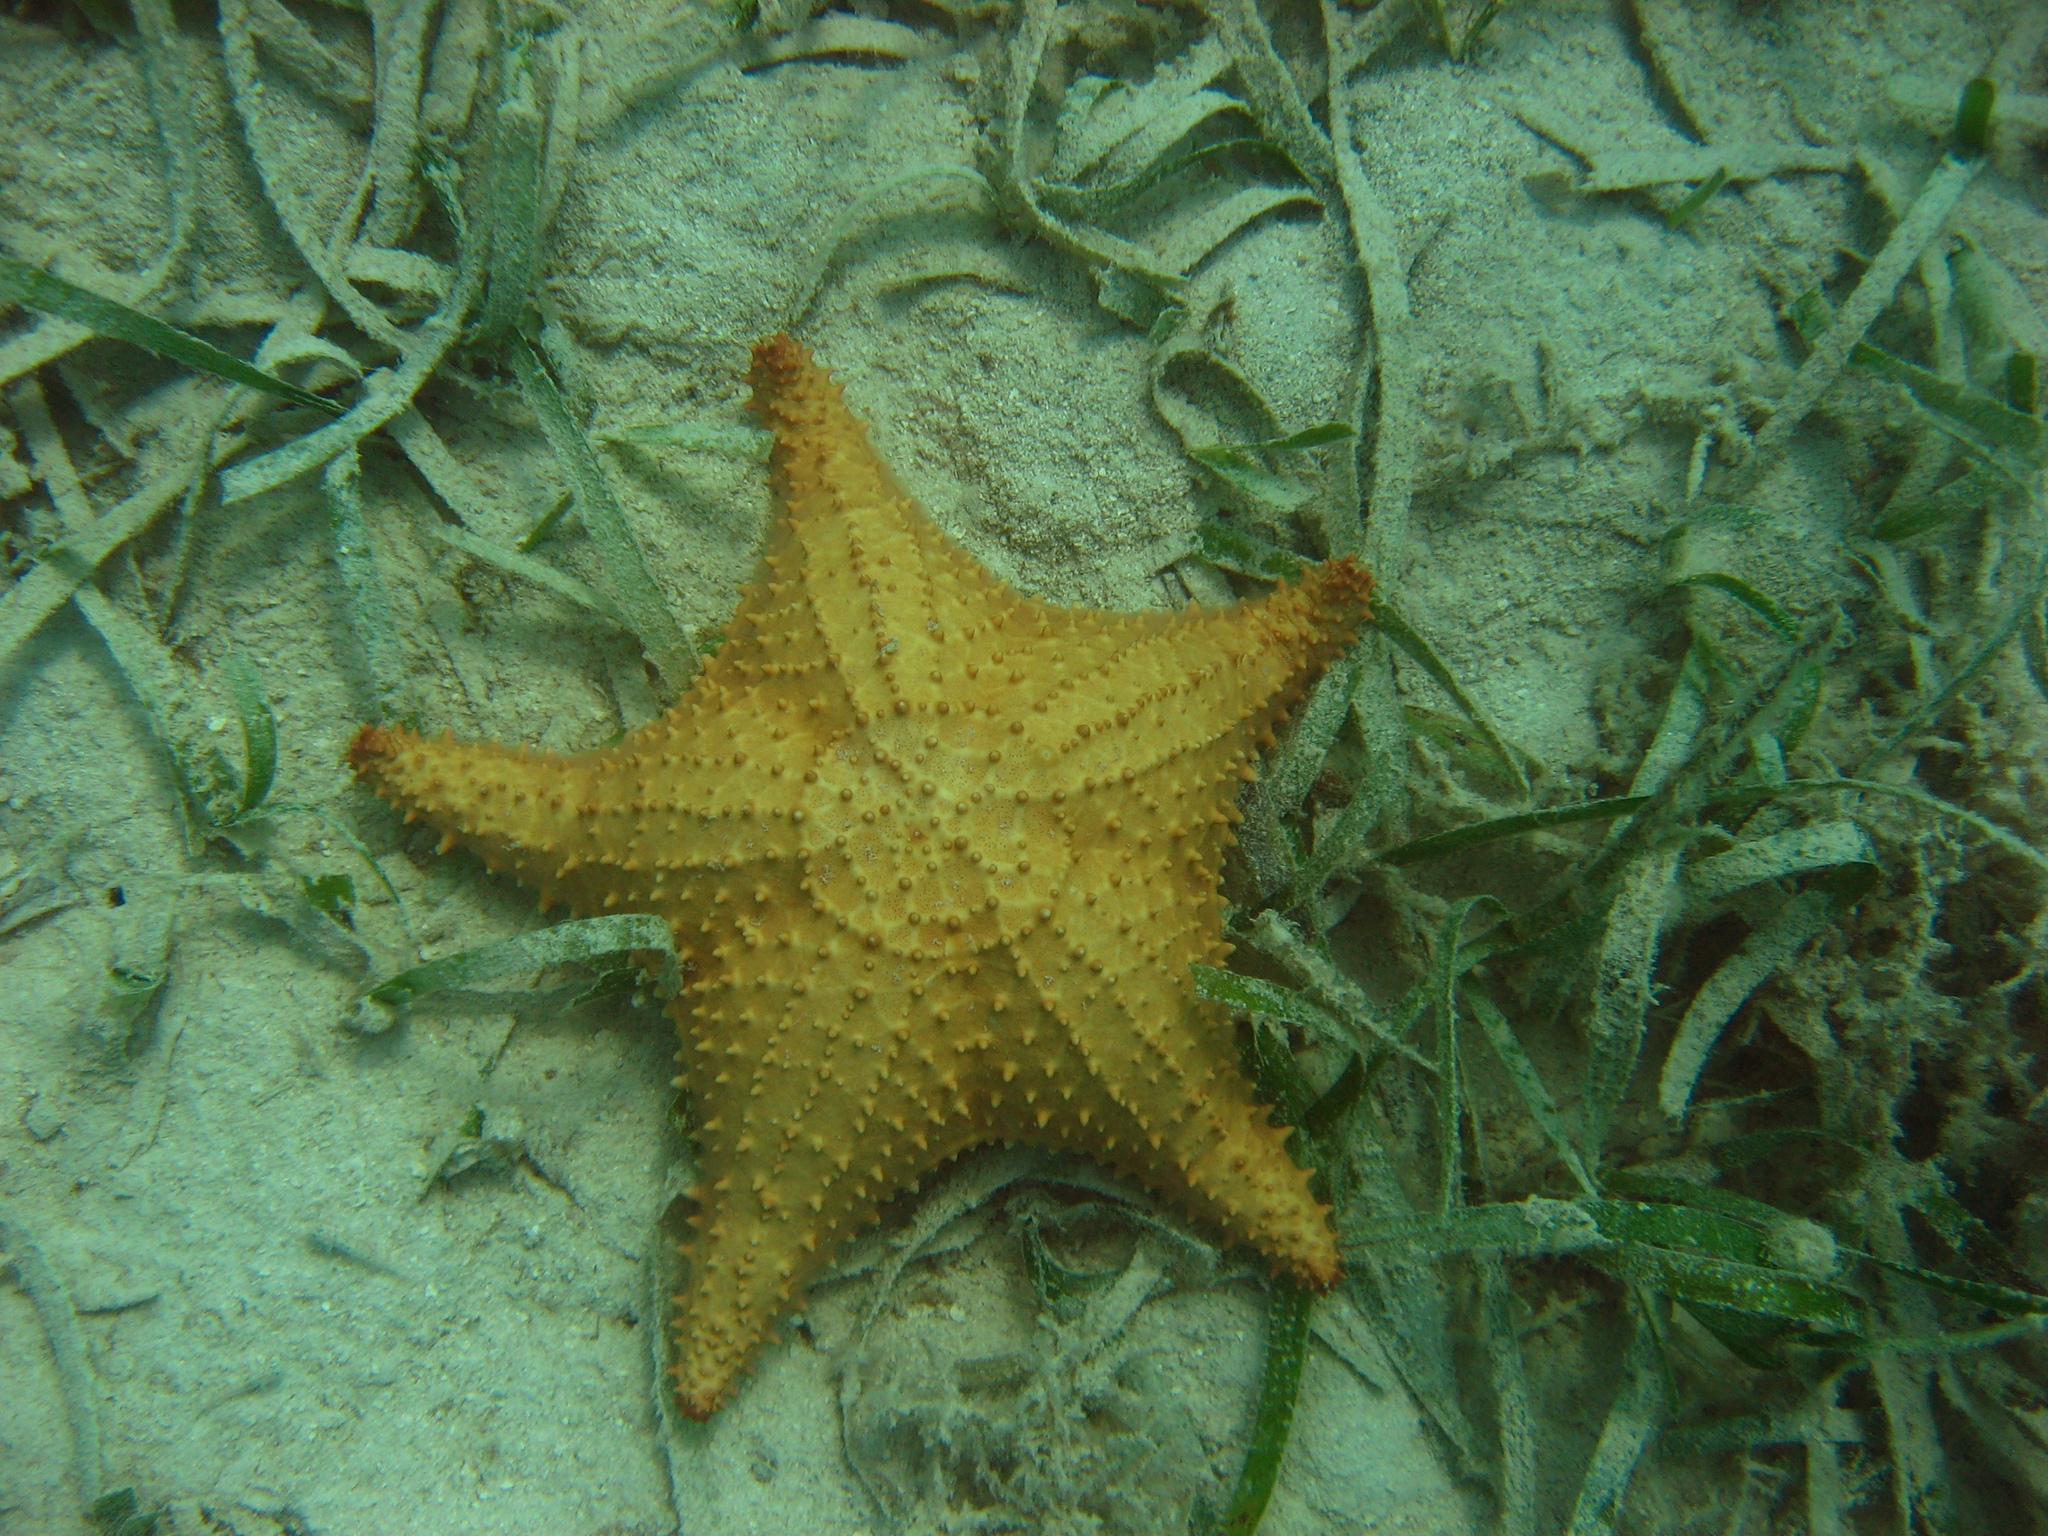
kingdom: Animalia
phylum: Echinodermata
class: Asteroidea
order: Valvatida
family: Oreasteridae
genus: Oreaster
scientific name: Oreaster reticulatus
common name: Cushion sea star
